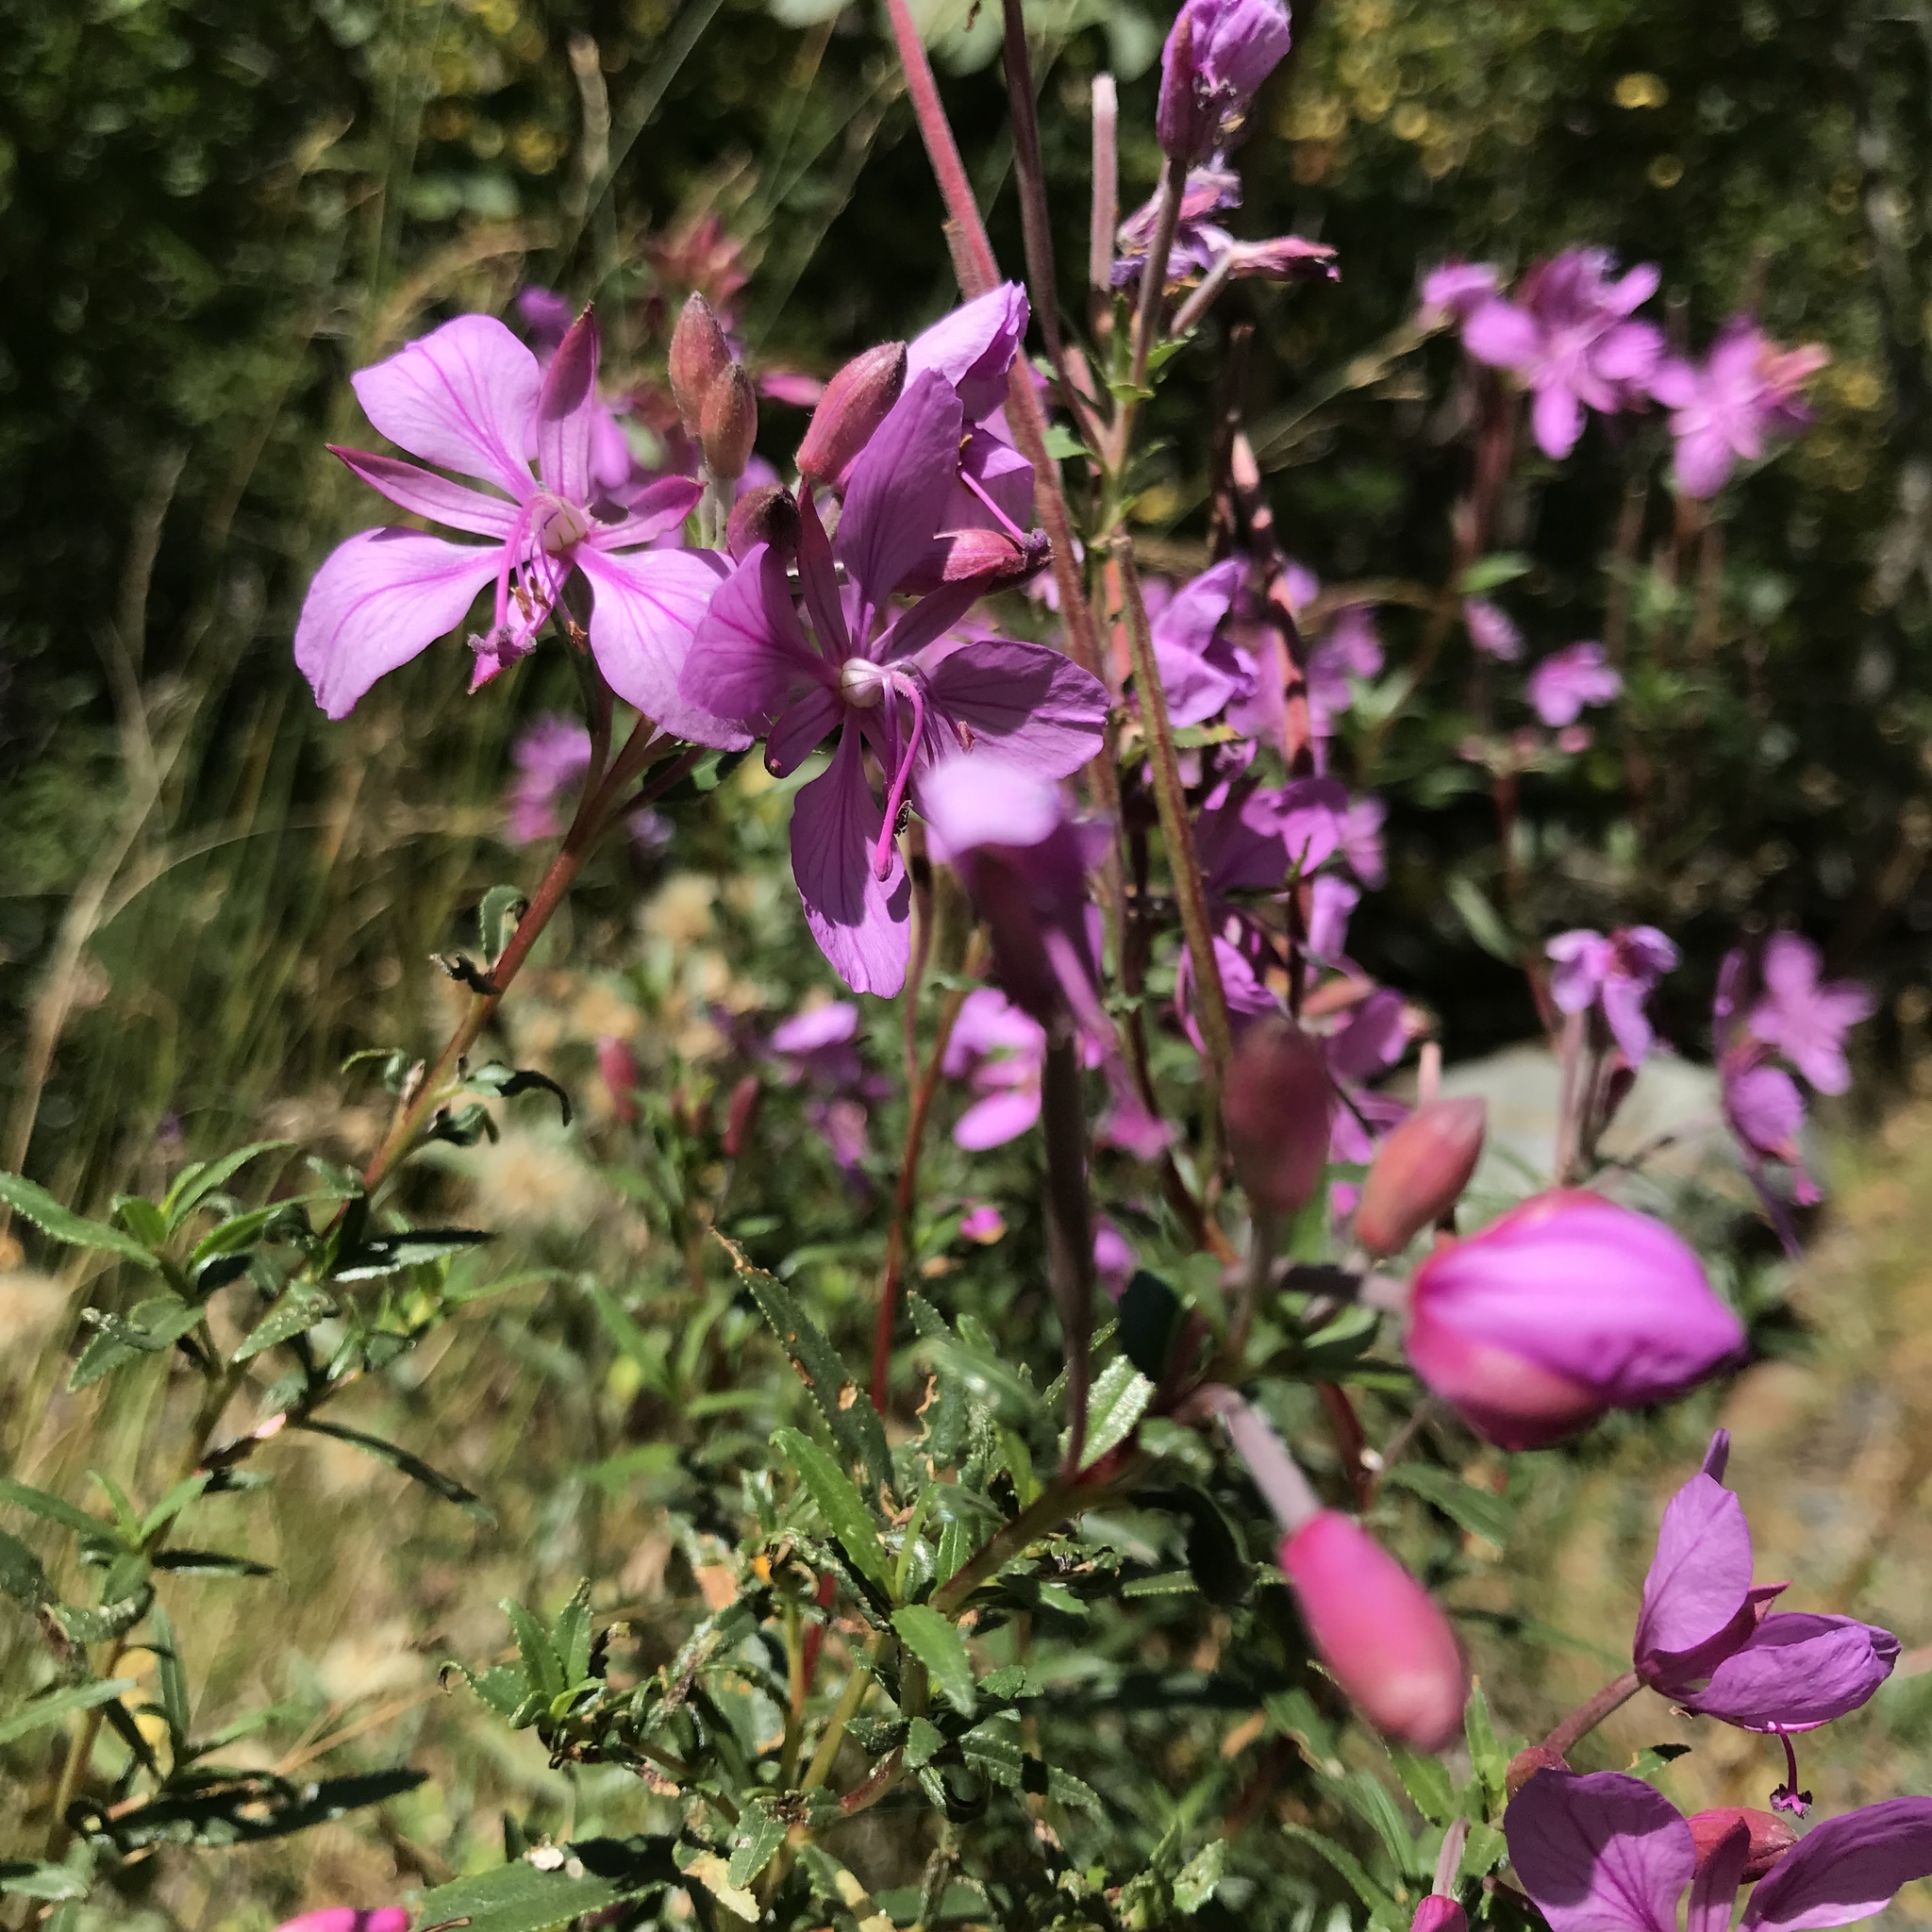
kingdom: Plantae
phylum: Tracheophyta
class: Magnoliopsida
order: Myrtales
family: Onagraceae
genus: Chamaenerion
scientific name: Chamaenerion dodonaei
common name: Rosemary-leaved willowherb
